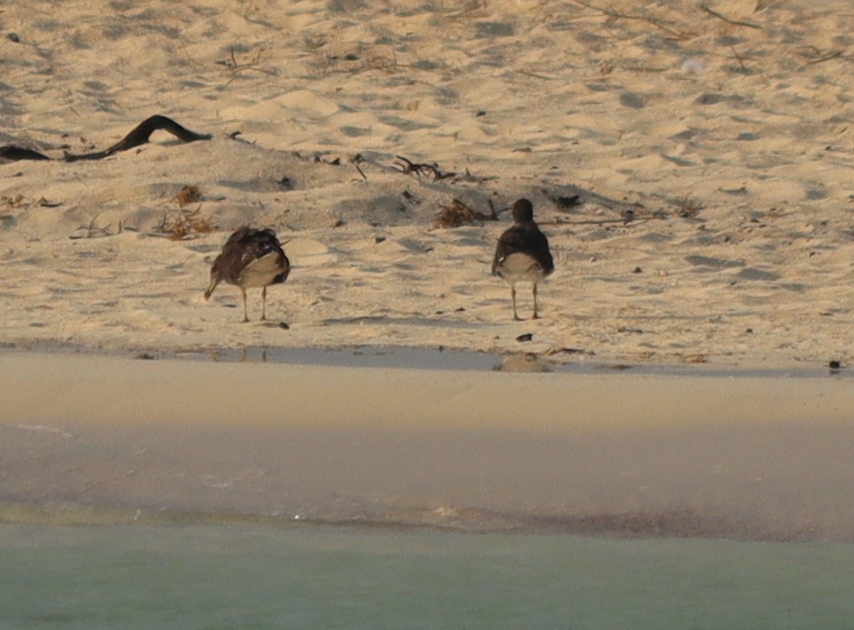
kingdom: Animalia
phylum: Chordata
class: Aves
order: Charadriiformes
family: Laridae
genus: Ichthyaetus
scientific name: Ichthyaetus leucophthalmus
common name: White-eyed gull
